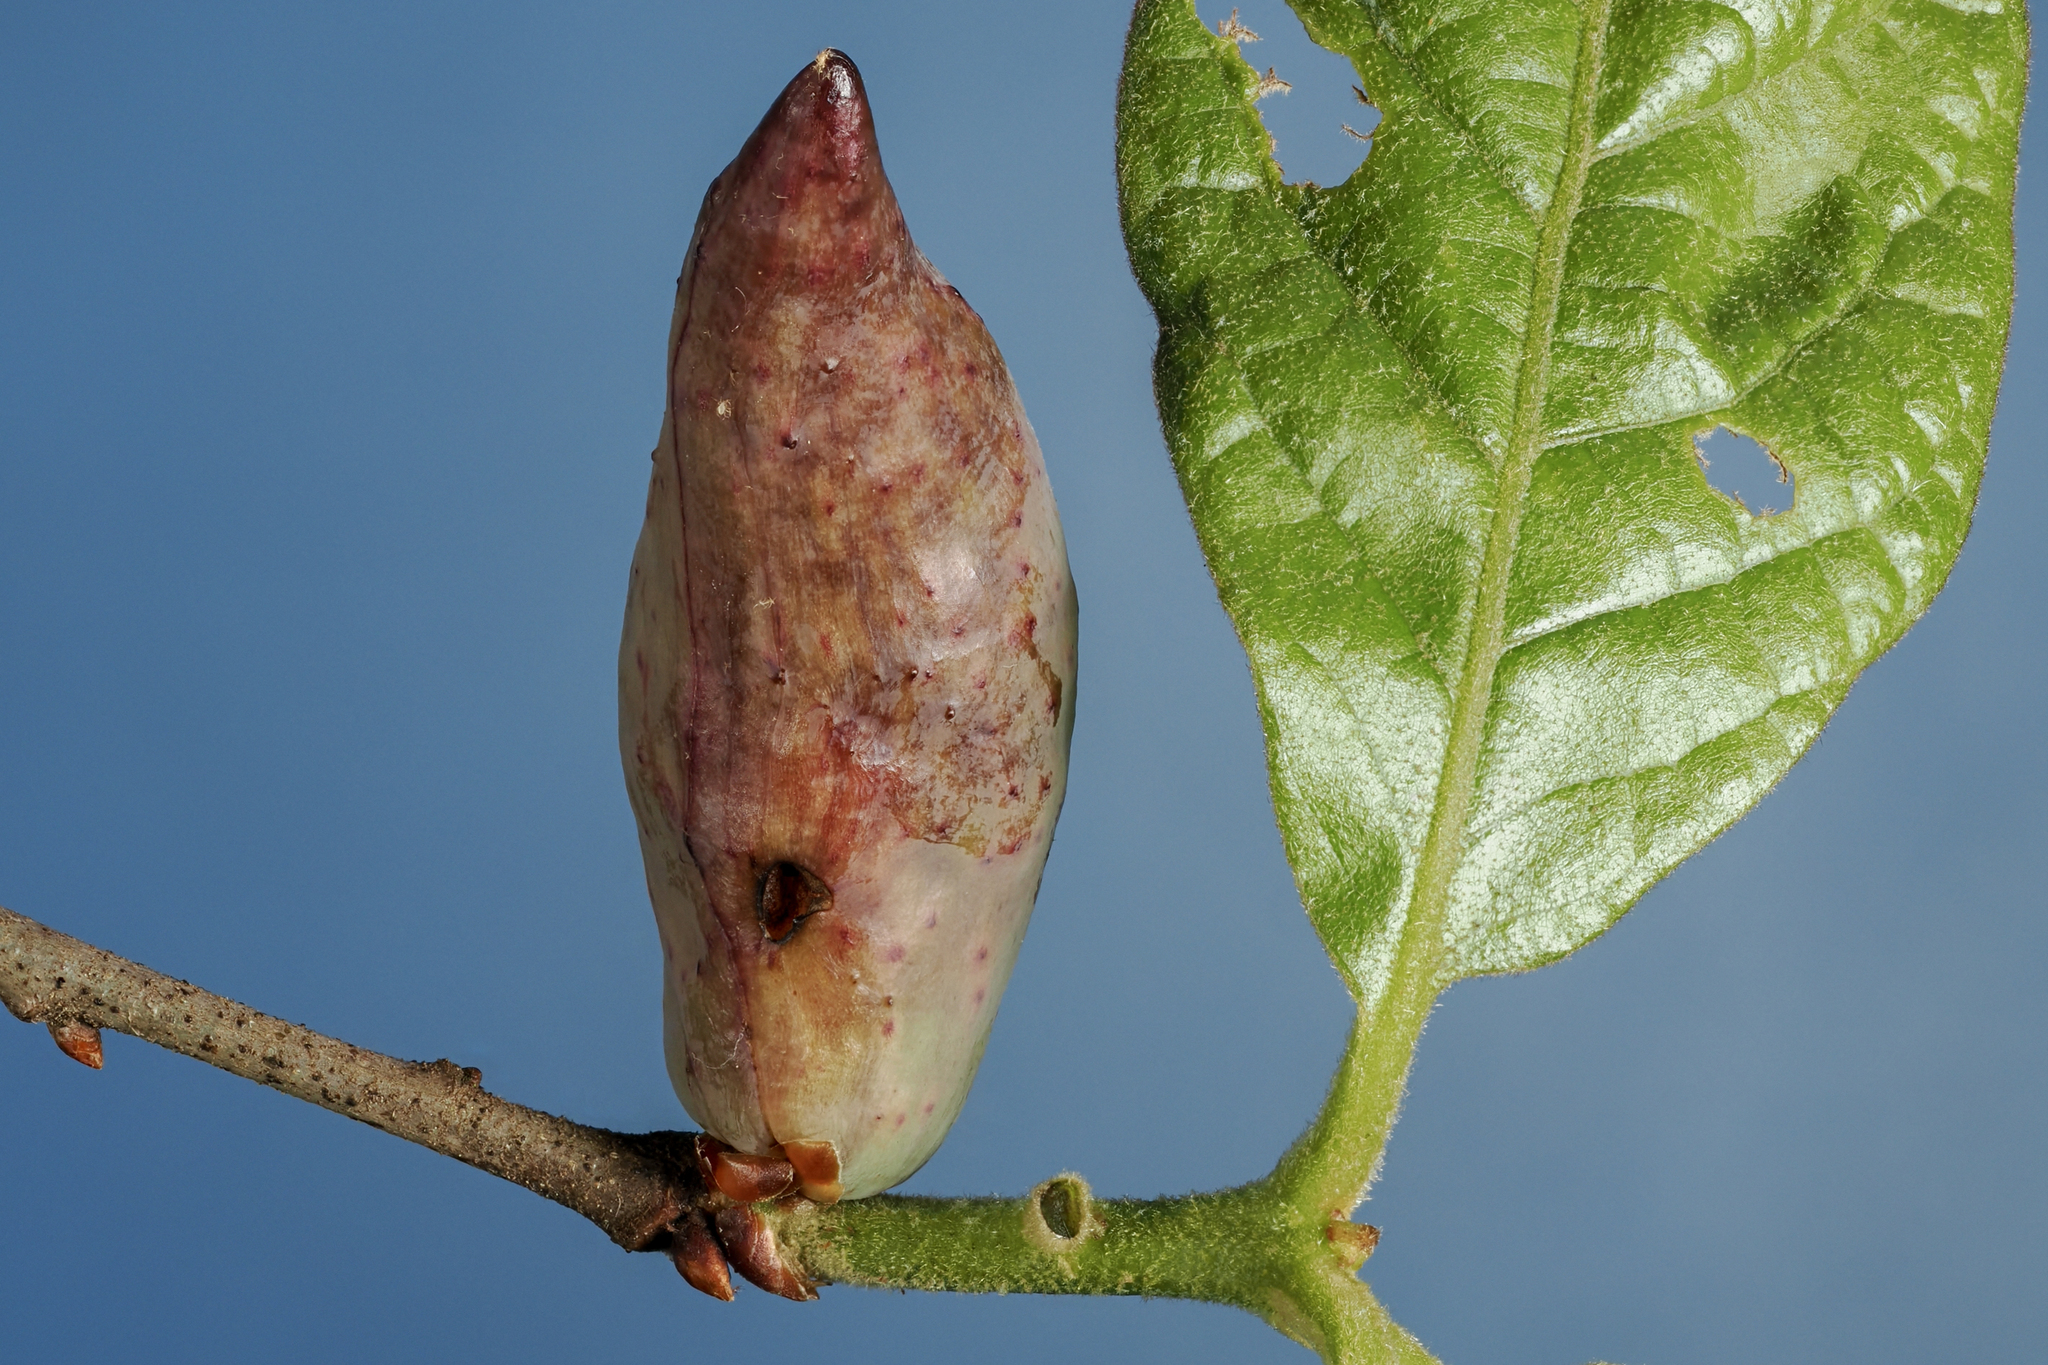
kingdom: Animalia
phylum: Arthropoda
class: Insecta
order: Hymenoptera
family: Cynipidae
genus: Amphibolips
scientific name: Amphibolips
